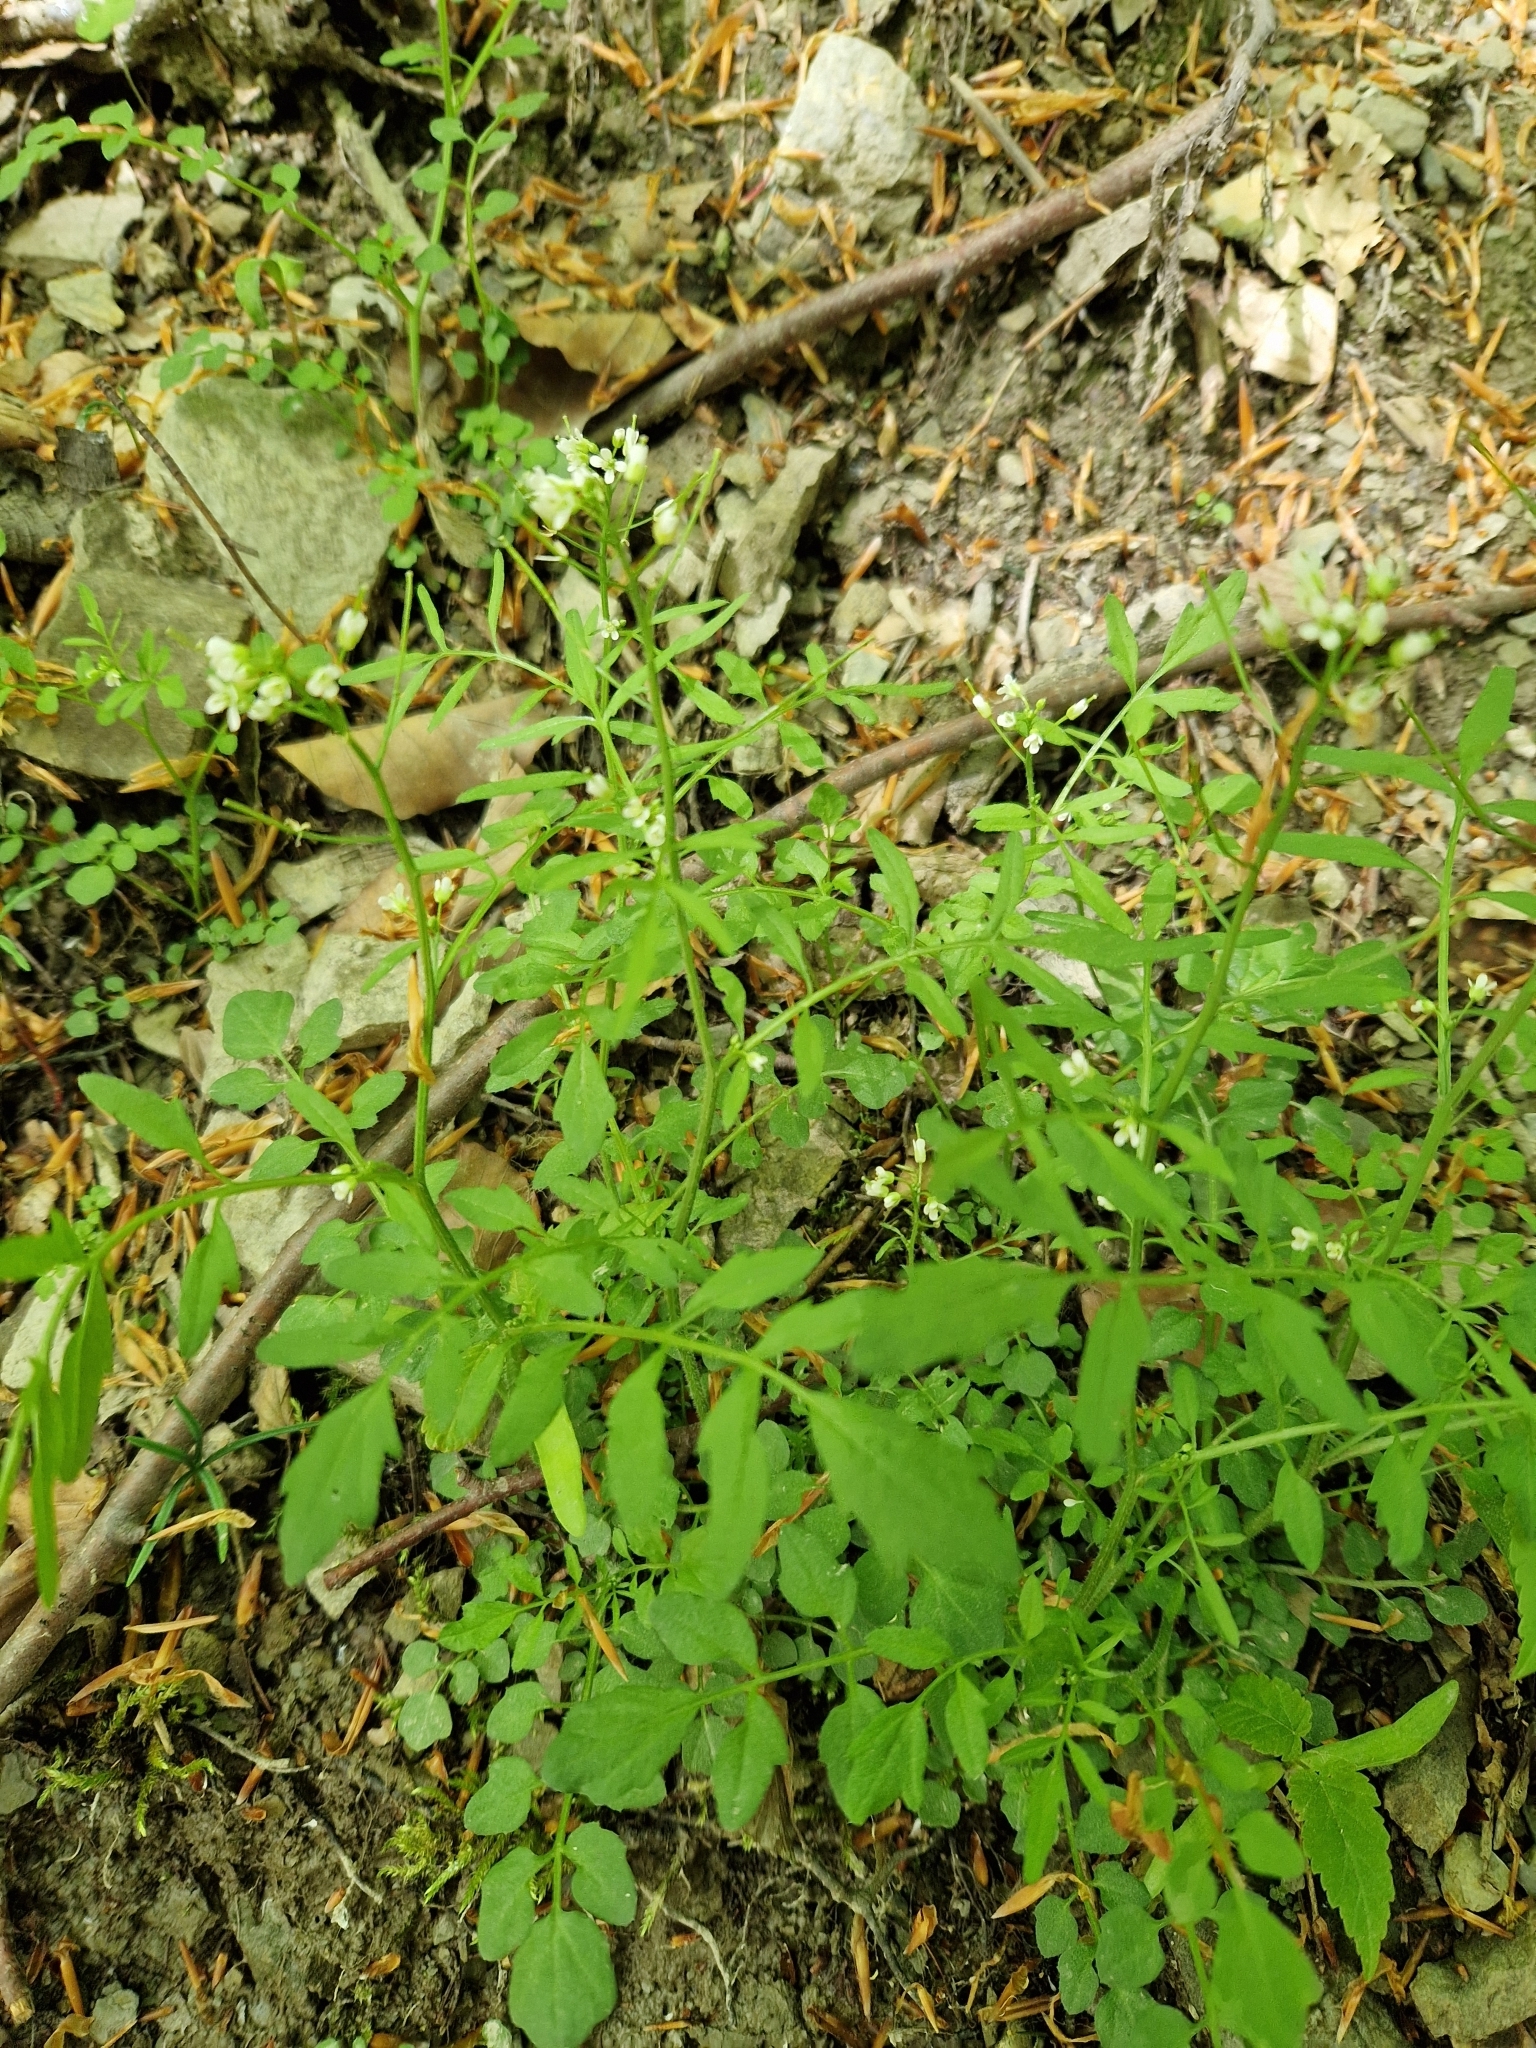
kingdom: Plantae
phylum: Tracheophyta
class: Magnoliopsida
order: Brassicales
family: Brassicaceae
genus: Cardamine
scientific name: Cardamine flexuosa
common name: Woodland bittercress
